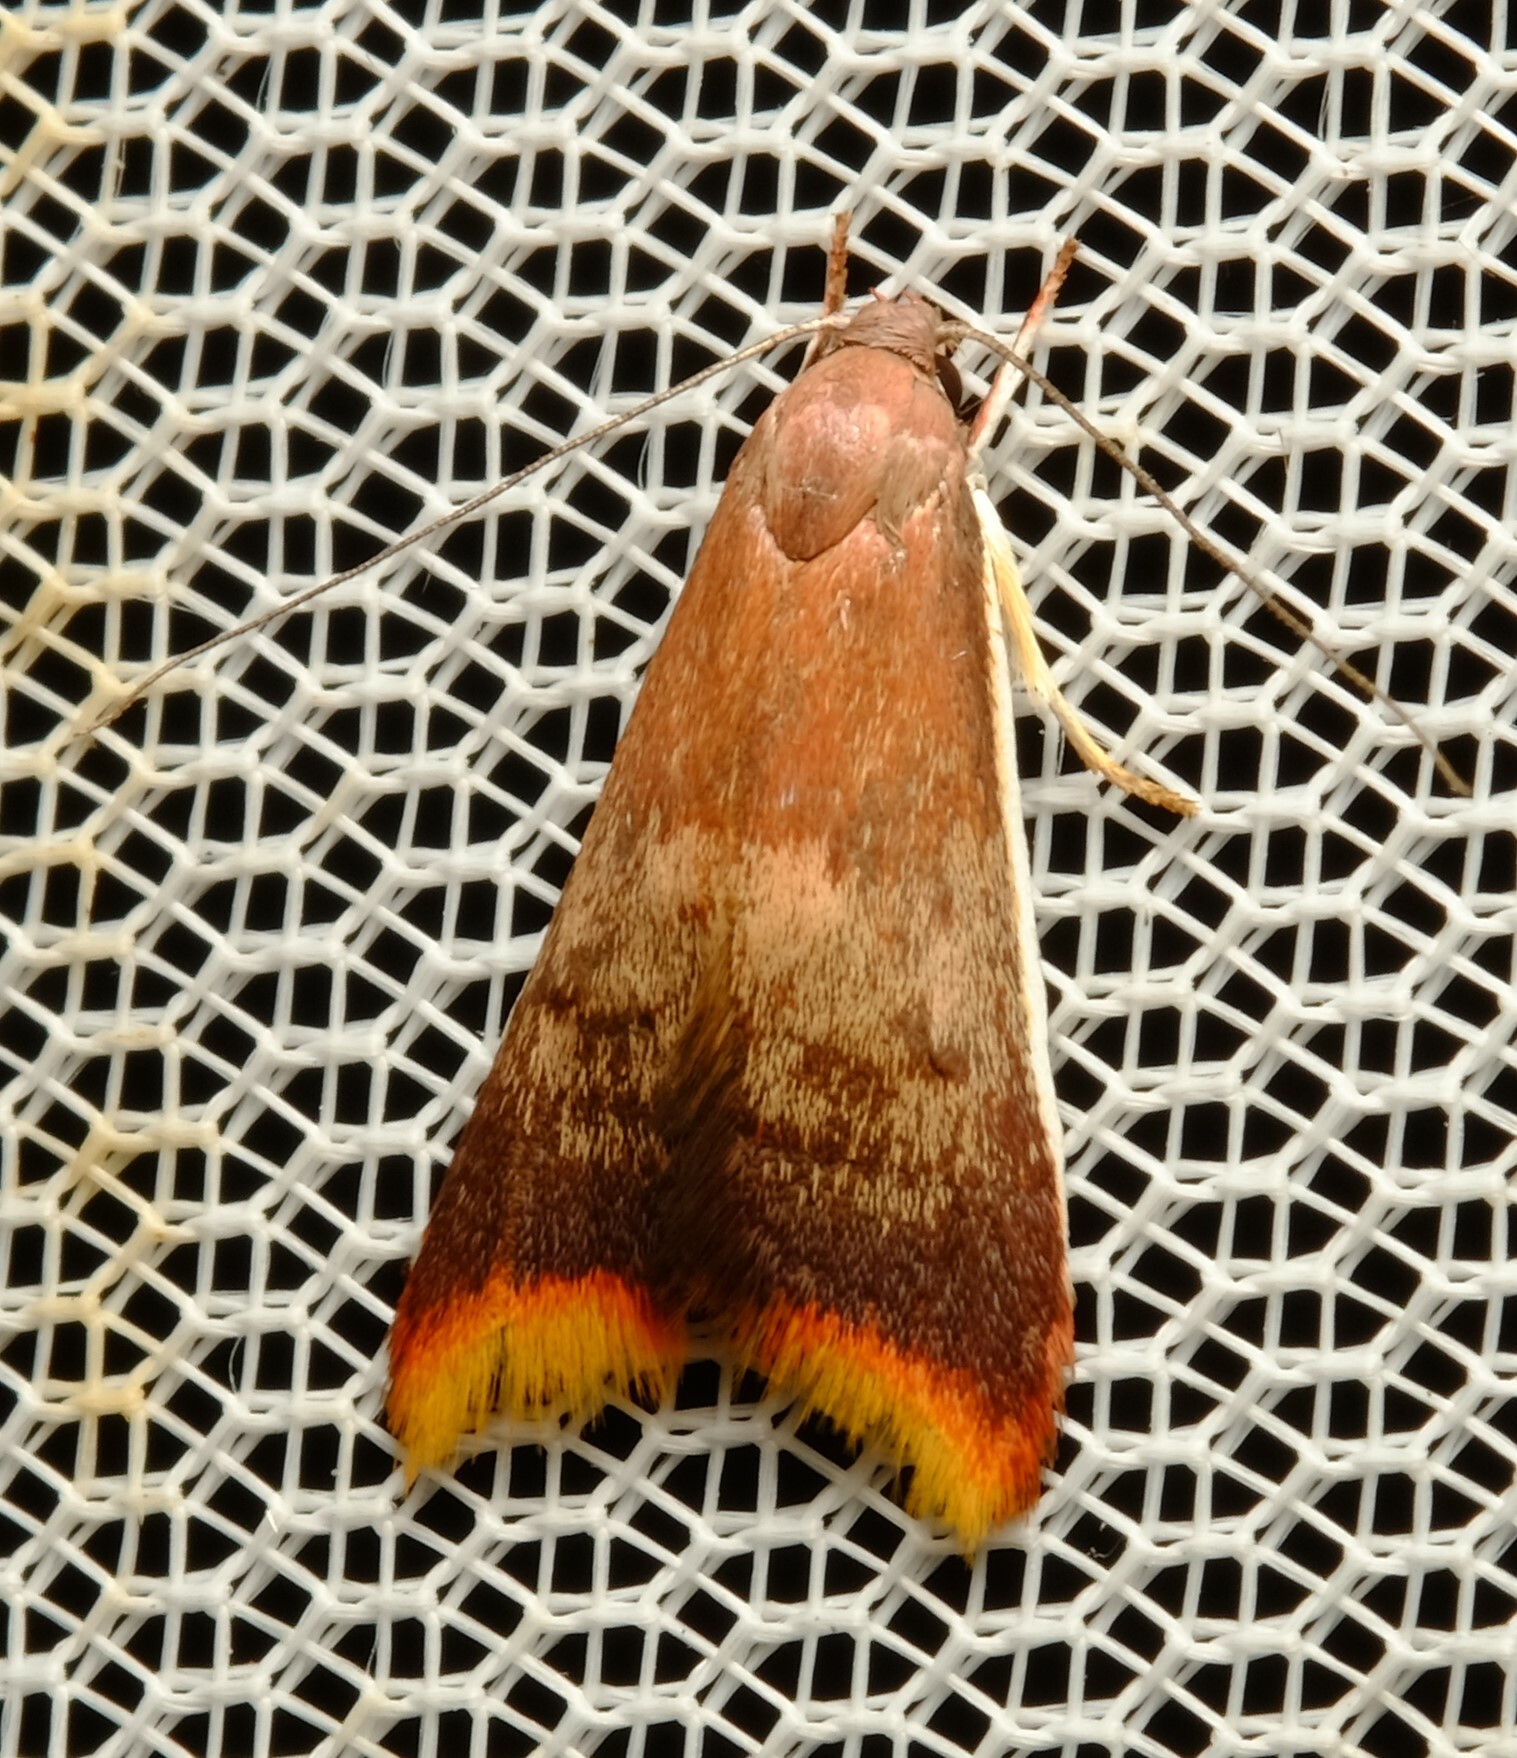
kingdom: Animalia
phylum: Arthropoda
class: Insecta
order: Lepidoptera
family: Oecophoridae
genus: Hemibela
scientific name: Hemibela callista
